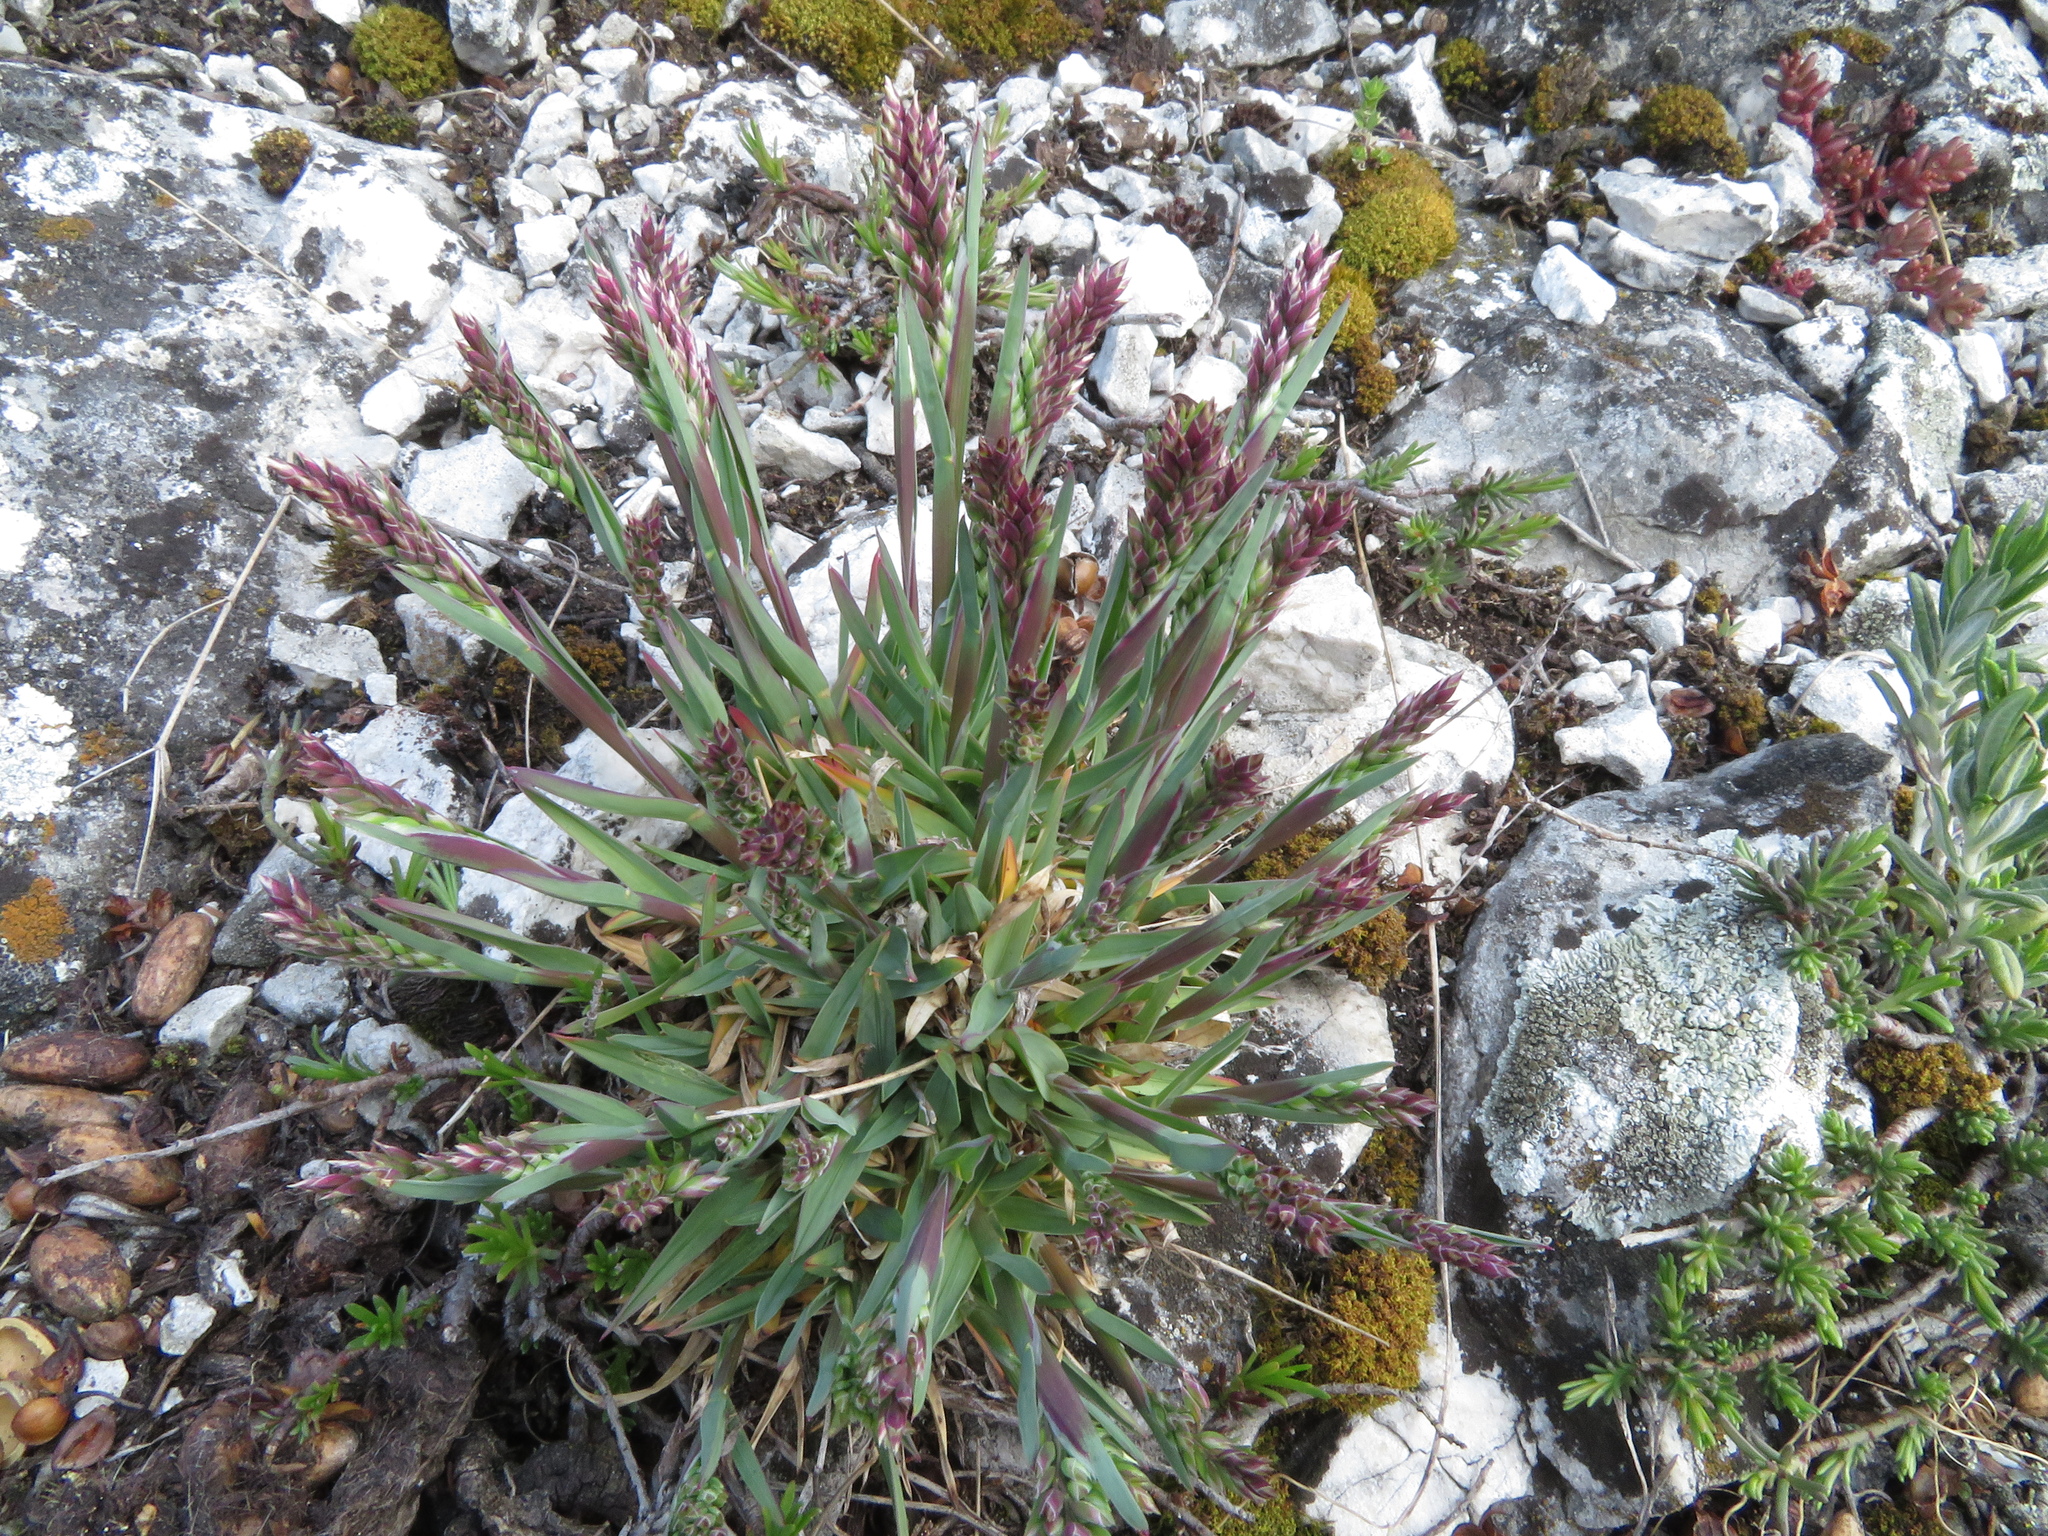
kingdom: Plantae
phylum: Tracheophyta
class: Liliopsida
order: Poales
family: Poaceae
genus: Poa
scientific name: Poa badensis
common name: Baden's bluegrass
